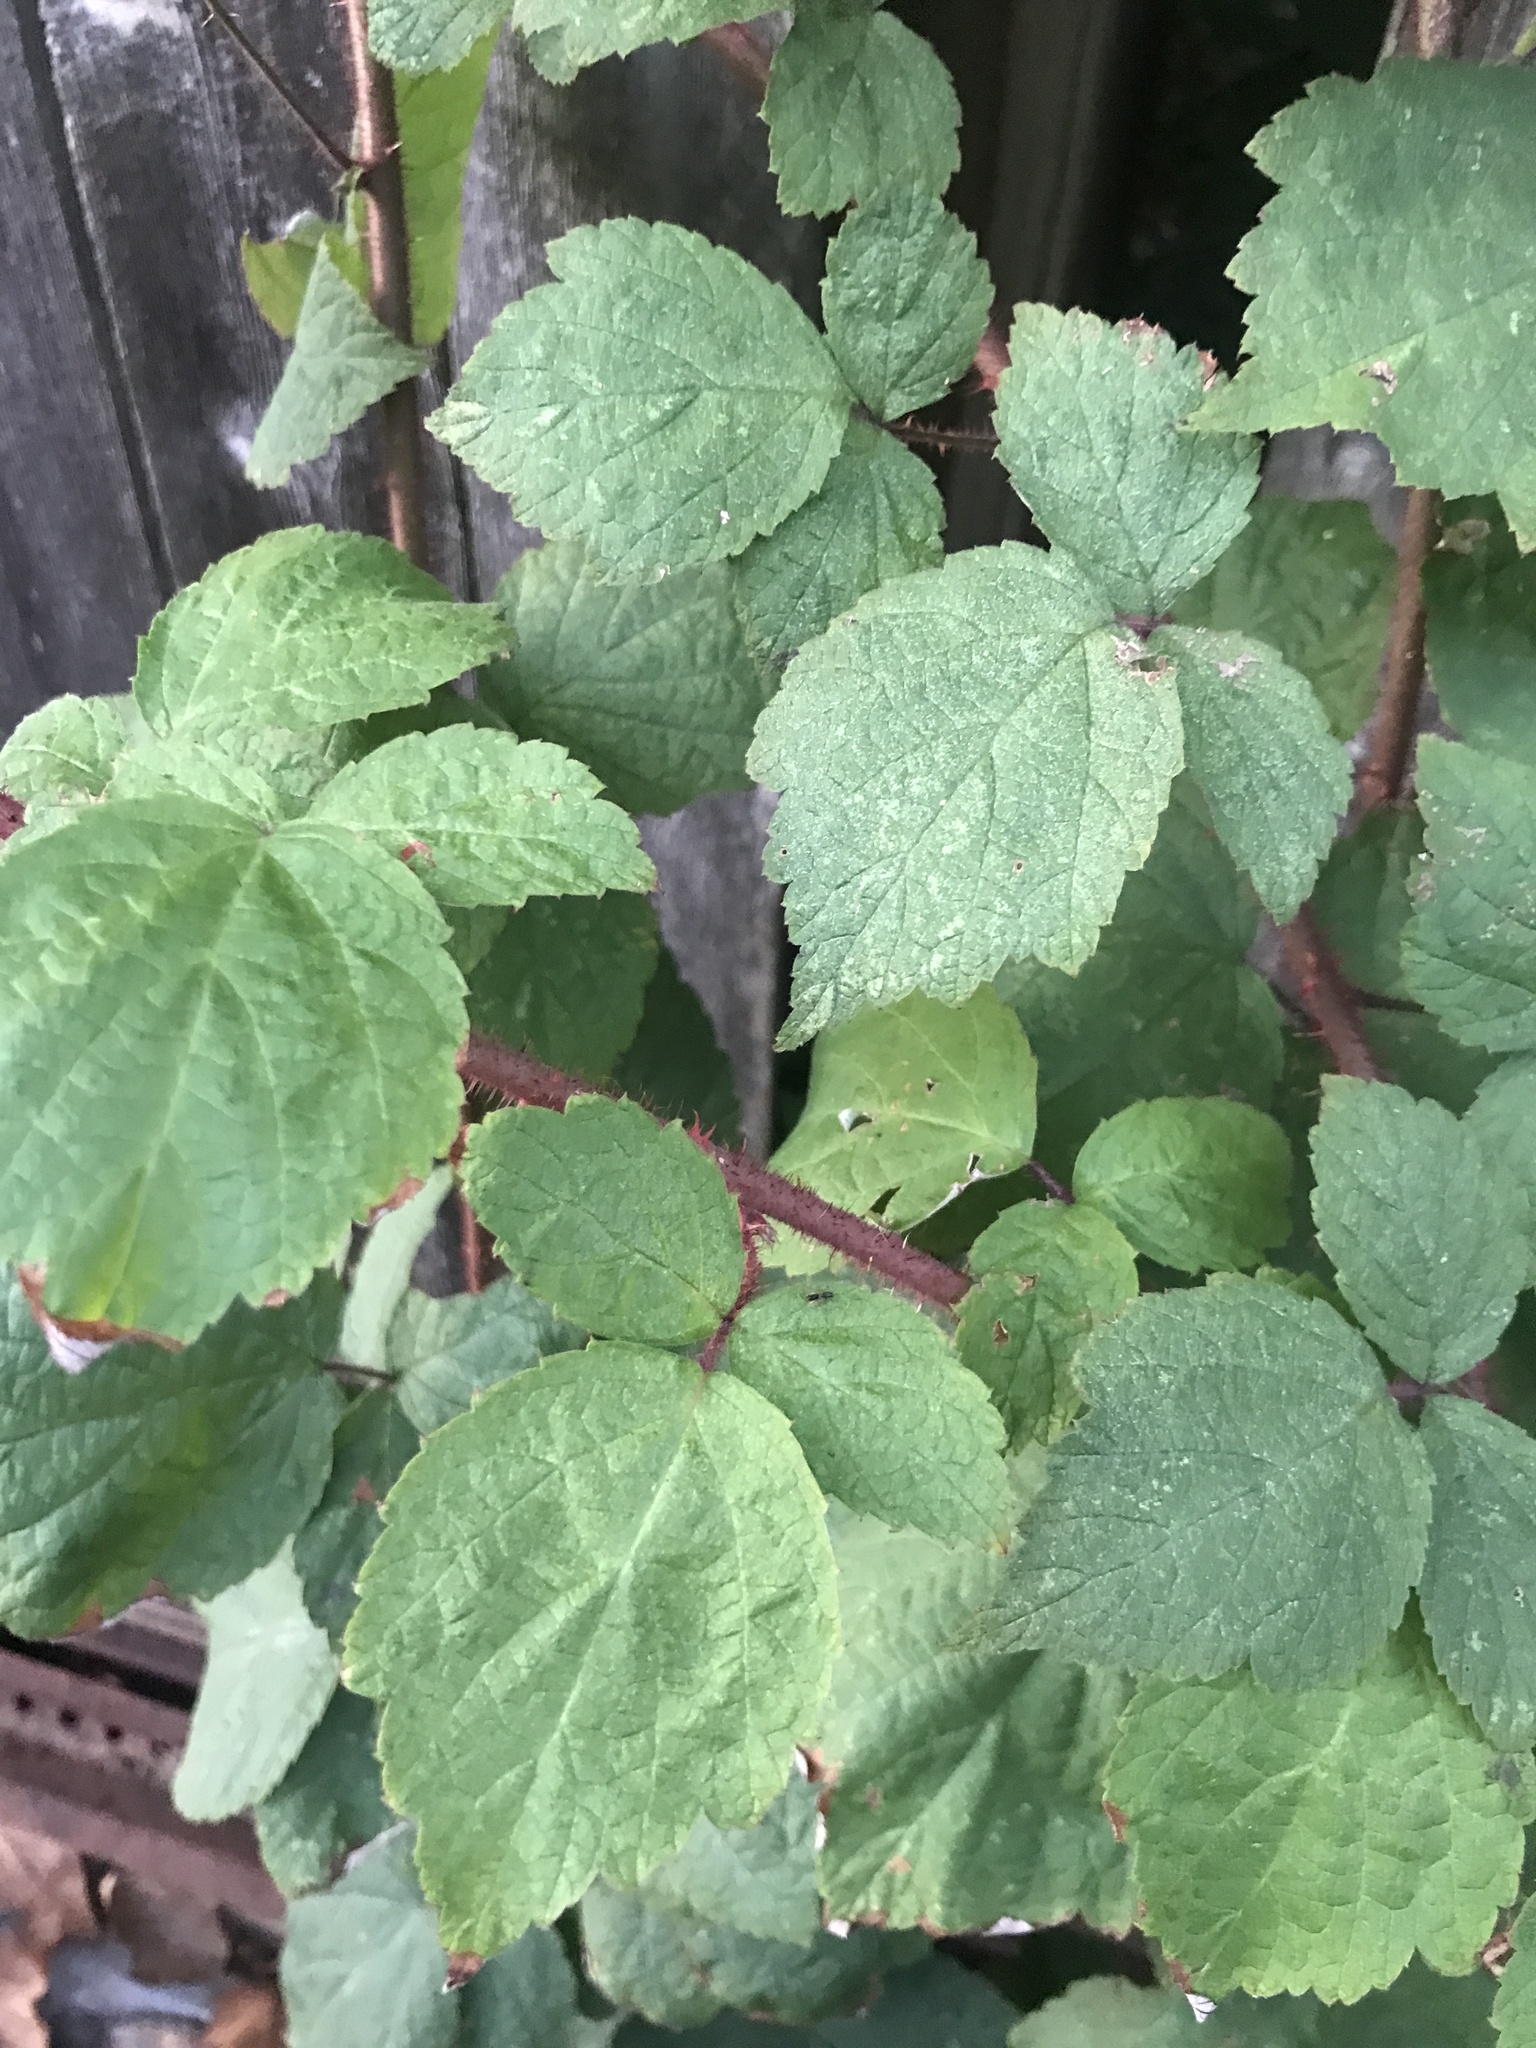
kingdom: Plantae
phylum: Tracheophyta
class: Magnoliopsida
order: Rosales
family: Rosaceae
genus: Rubus
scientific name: Rubus phoenicolasius
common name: Japanese wineberry
